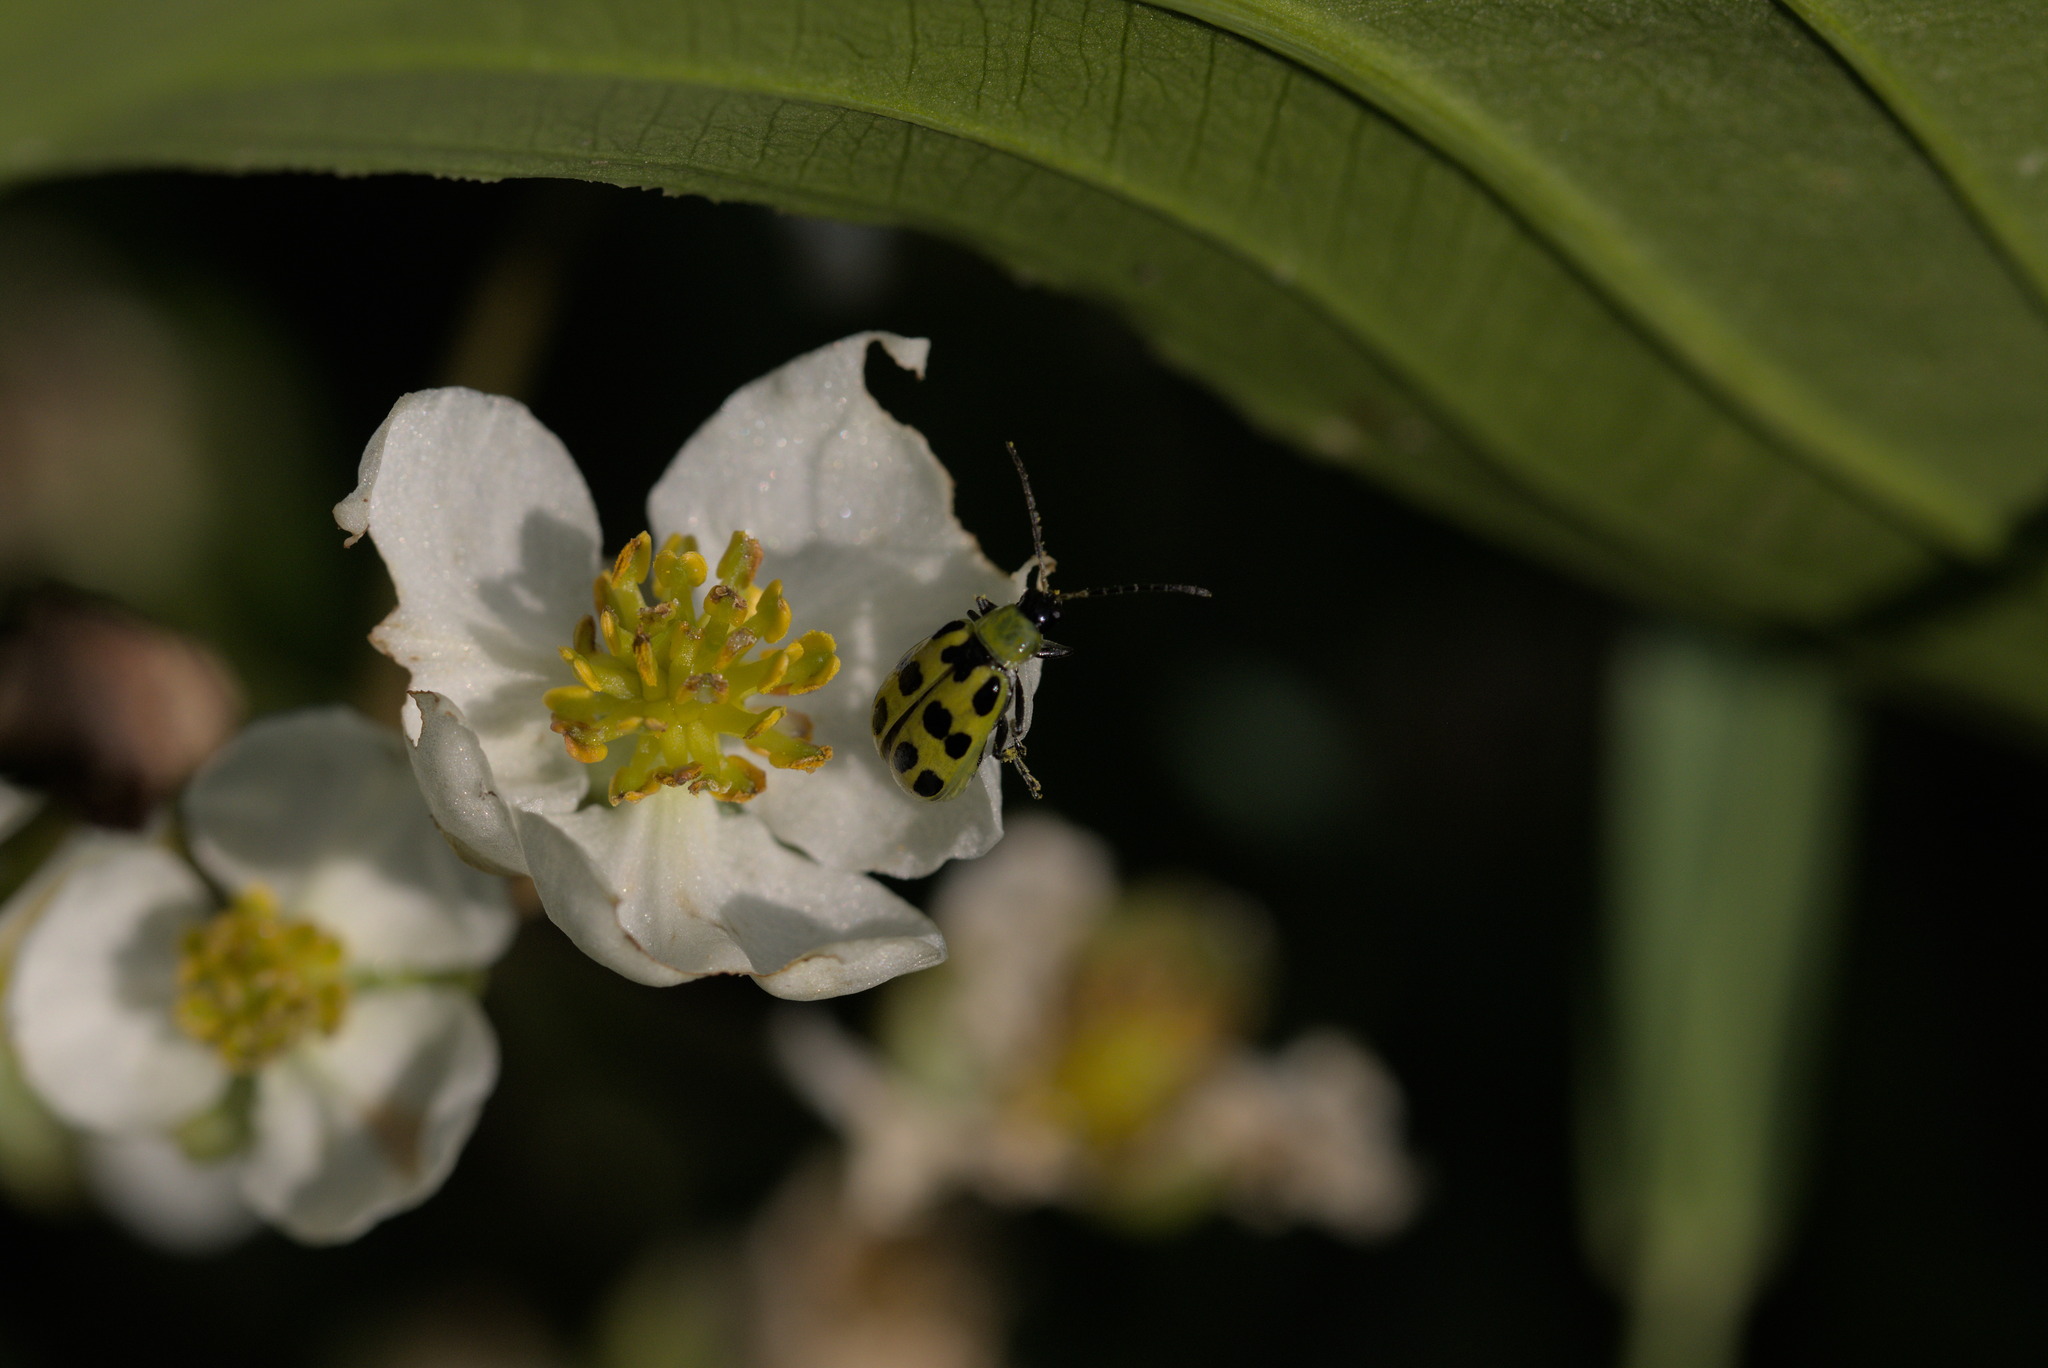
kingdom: Animalia
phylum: Arthropoda
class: Insecta
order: Coleoptera
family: Chrysomelidae
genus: Diabrotica
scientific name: Diabrotica undecimpunctata
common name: Spotted cucumber beetle
